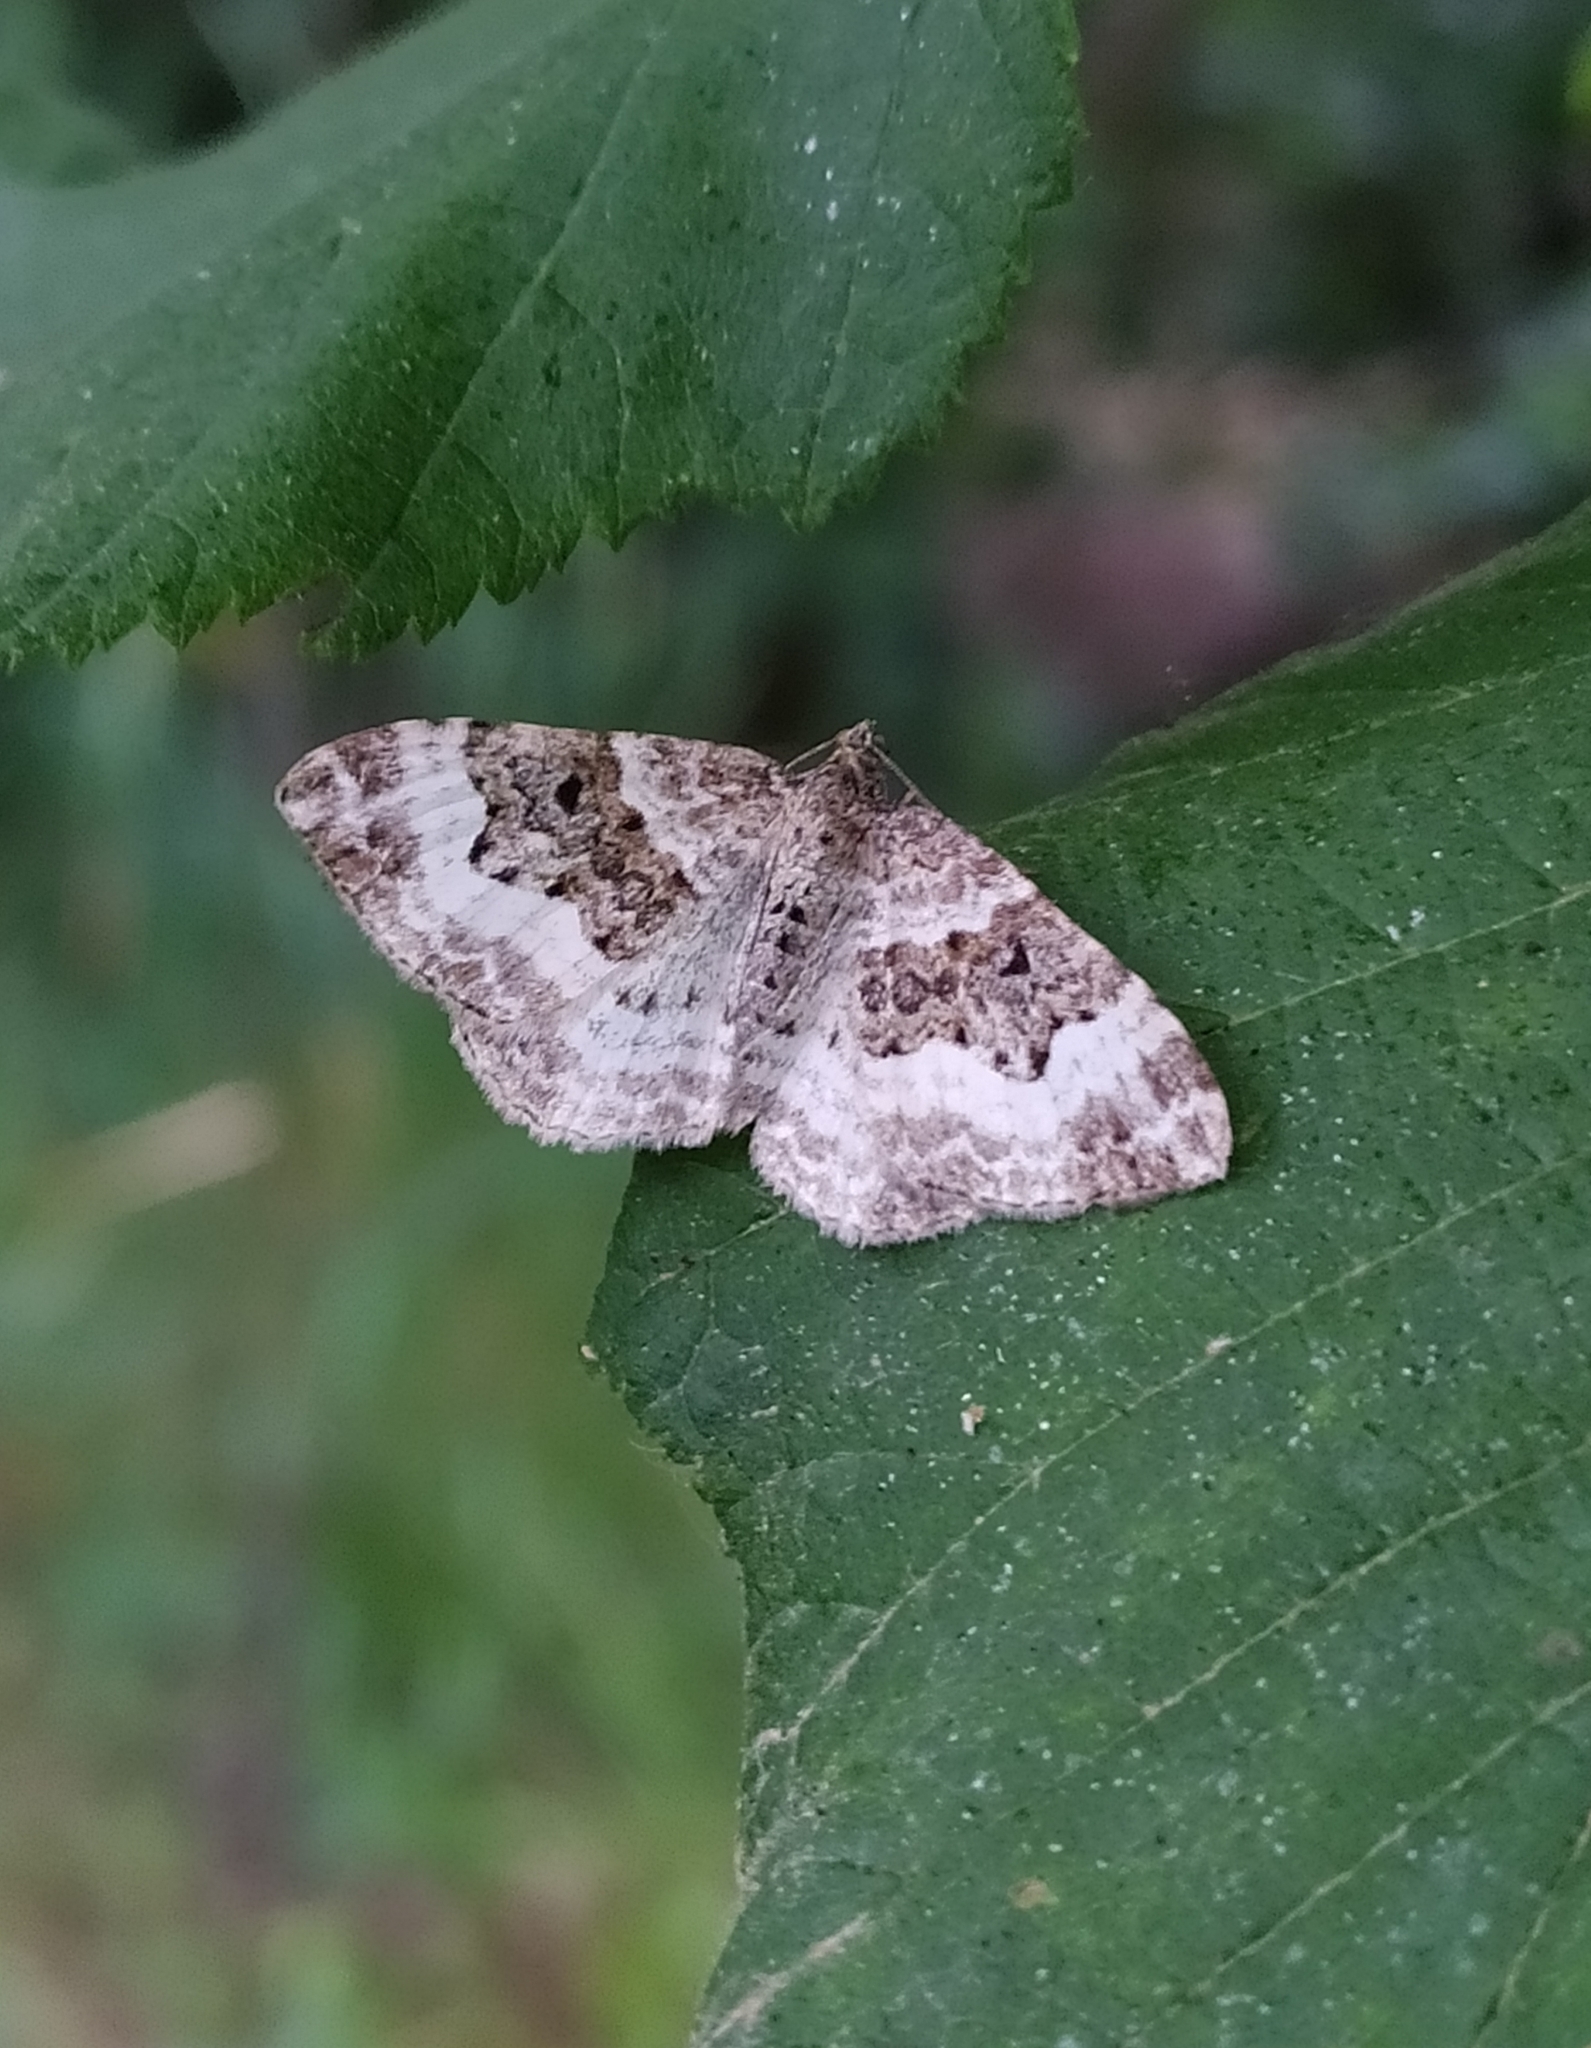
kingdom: Animalia
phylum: Arthropoda
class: Insecta
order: Lepidoptera
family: Geometridae
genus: Epirrhoe
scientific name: Epirrhoe alternata
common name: Common carpet
